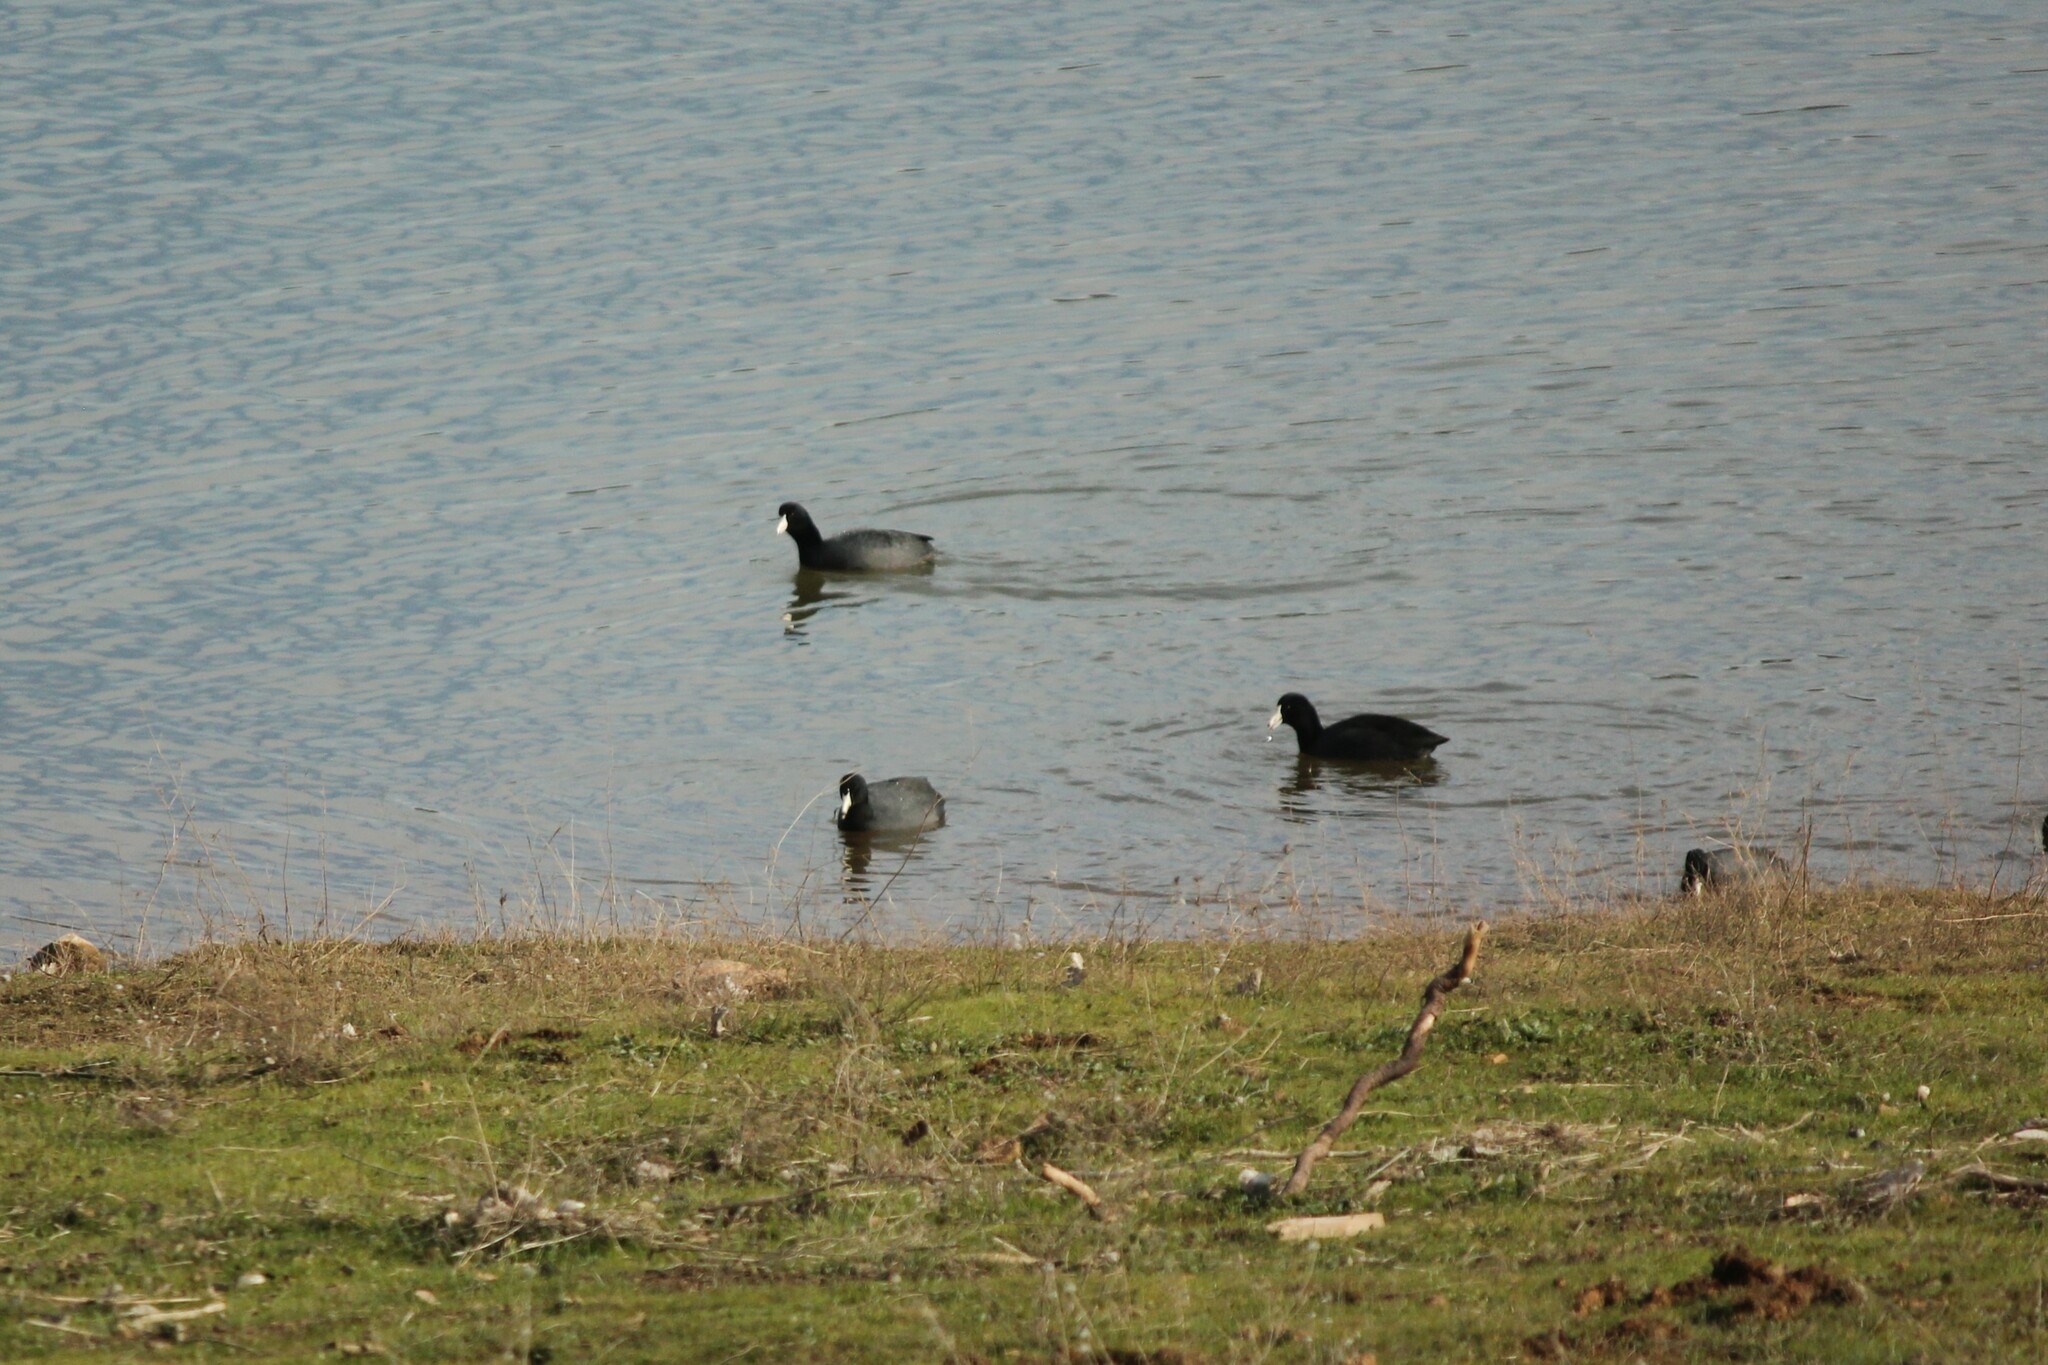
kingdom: Animalia
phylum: Chordata
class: Aves
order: Gruiformes
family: Rallidae
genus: Fulica
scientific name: Fulica americana
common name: American coot
